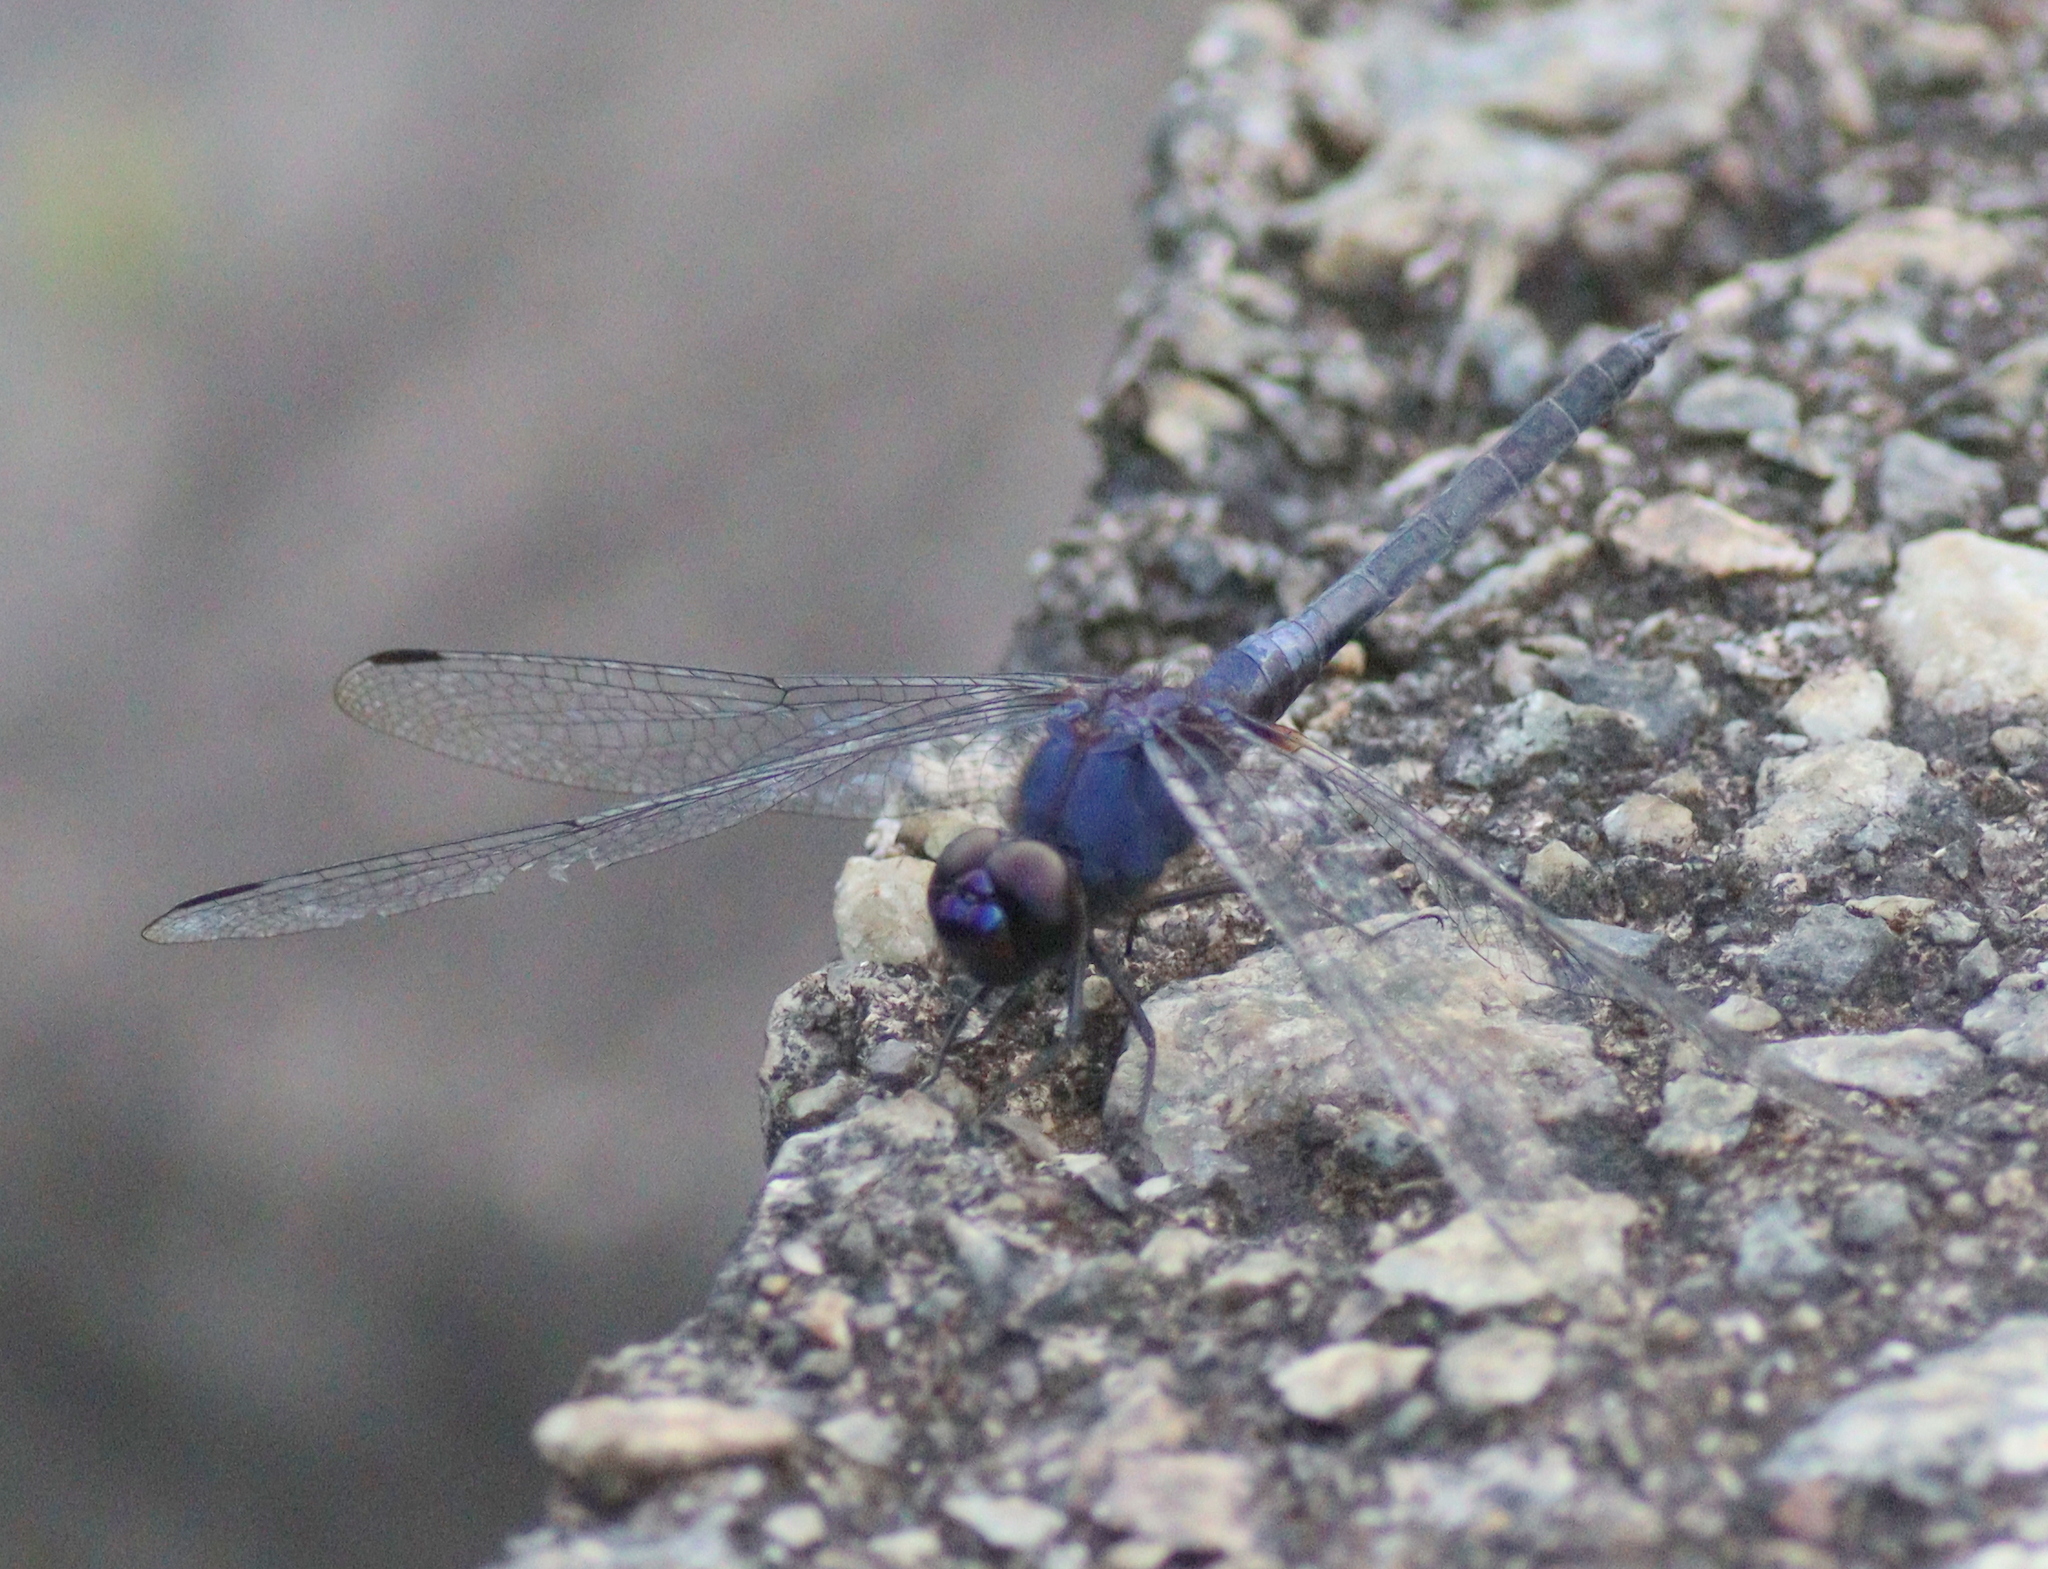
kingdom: Animalia
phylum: Arthropoda
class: Insecta
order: Odonata
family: Libellulidae
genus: Trithemis
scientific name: Trithemis festiva
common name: Indigo dropwing
